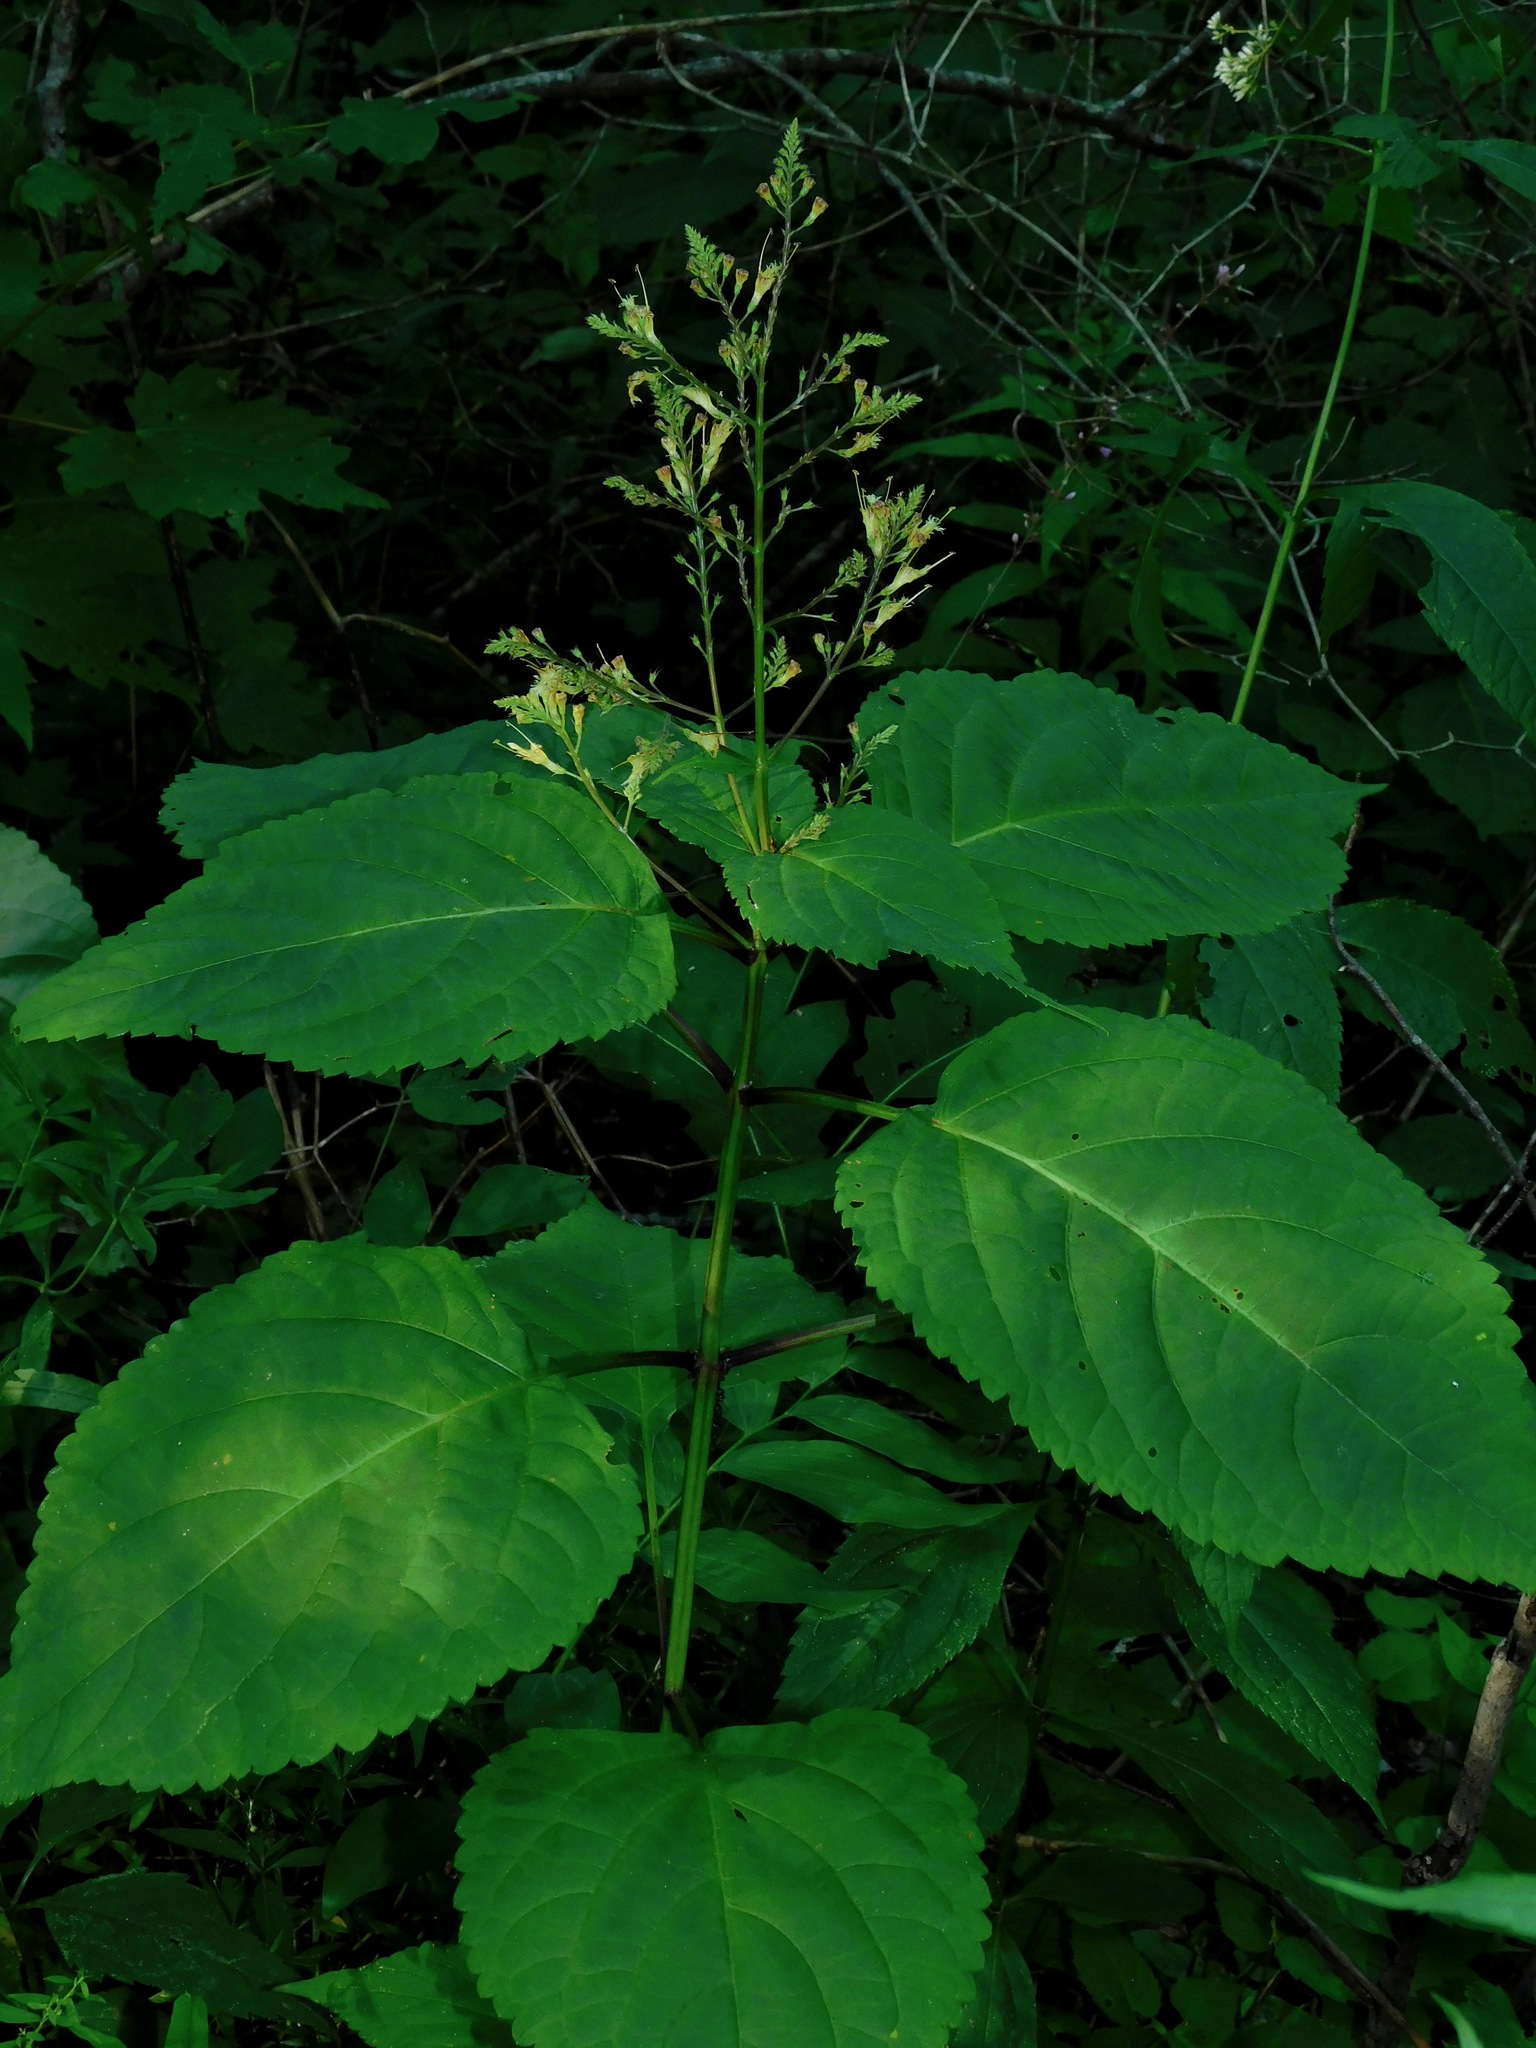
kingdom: Plantae
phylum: Tracheophyta
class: Magnoliopsida
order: Lamiales
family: Lamiaceae
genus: Collinsonia
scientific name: Collinsonia canadensis
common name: Northern horsebalm
